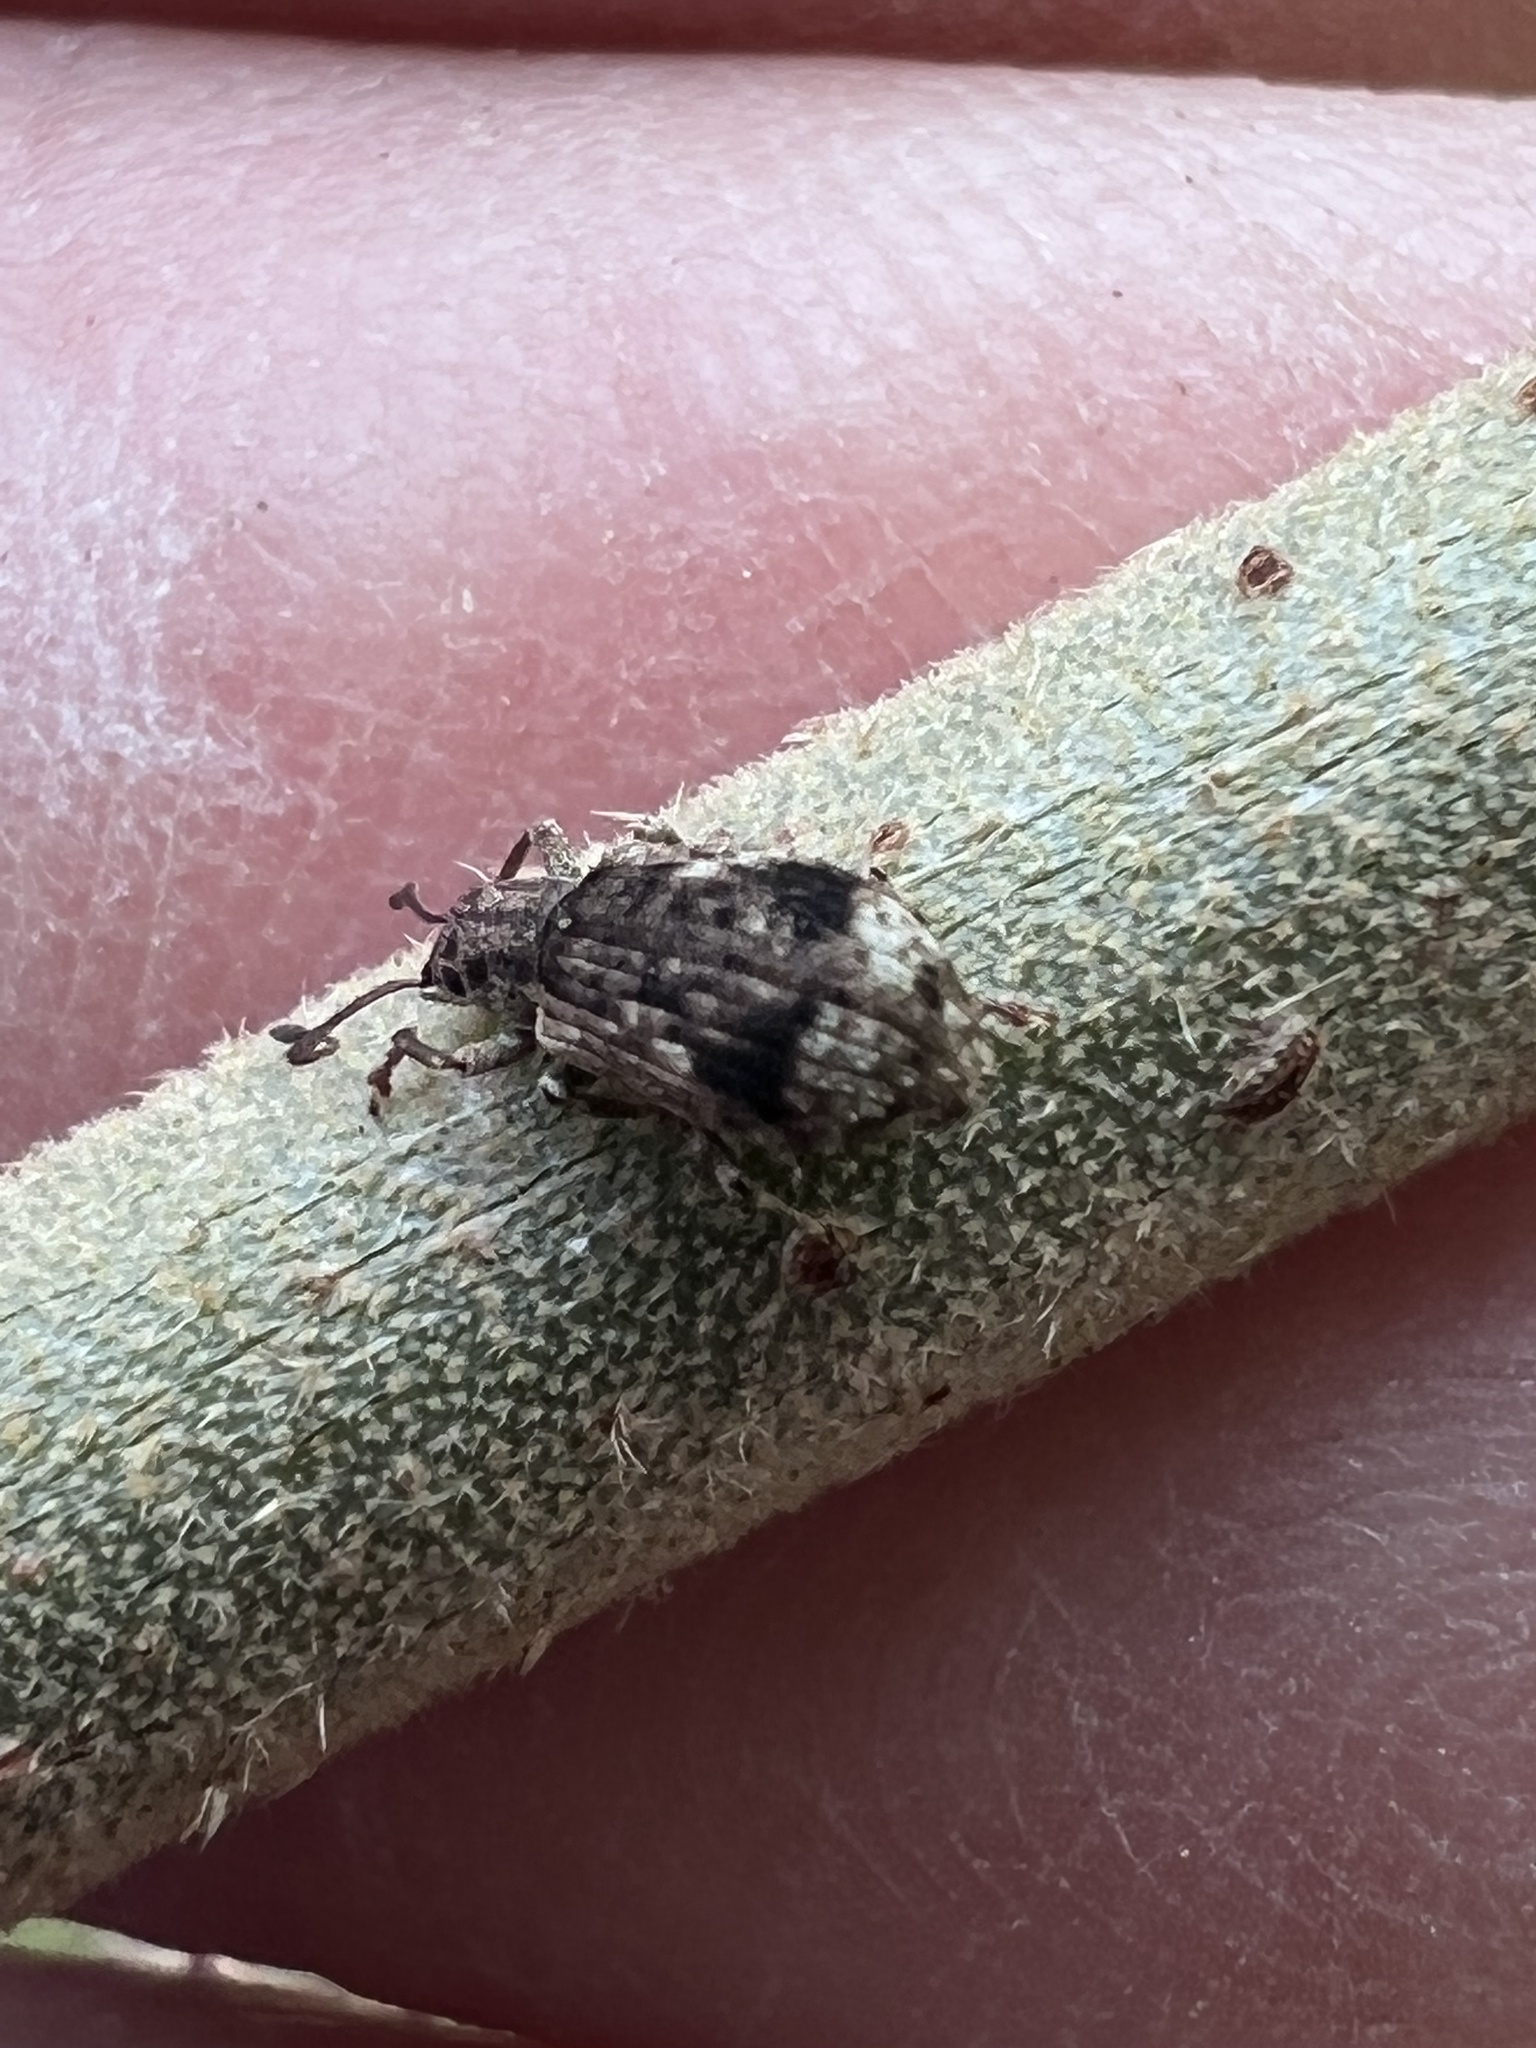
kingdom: Animalia
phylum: Arthropoda
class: Insecta
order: Coleoptera
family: Curculionidae
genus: Pseudoedophrys
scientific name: Pseudoedophrys hilleri
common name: Weevil
